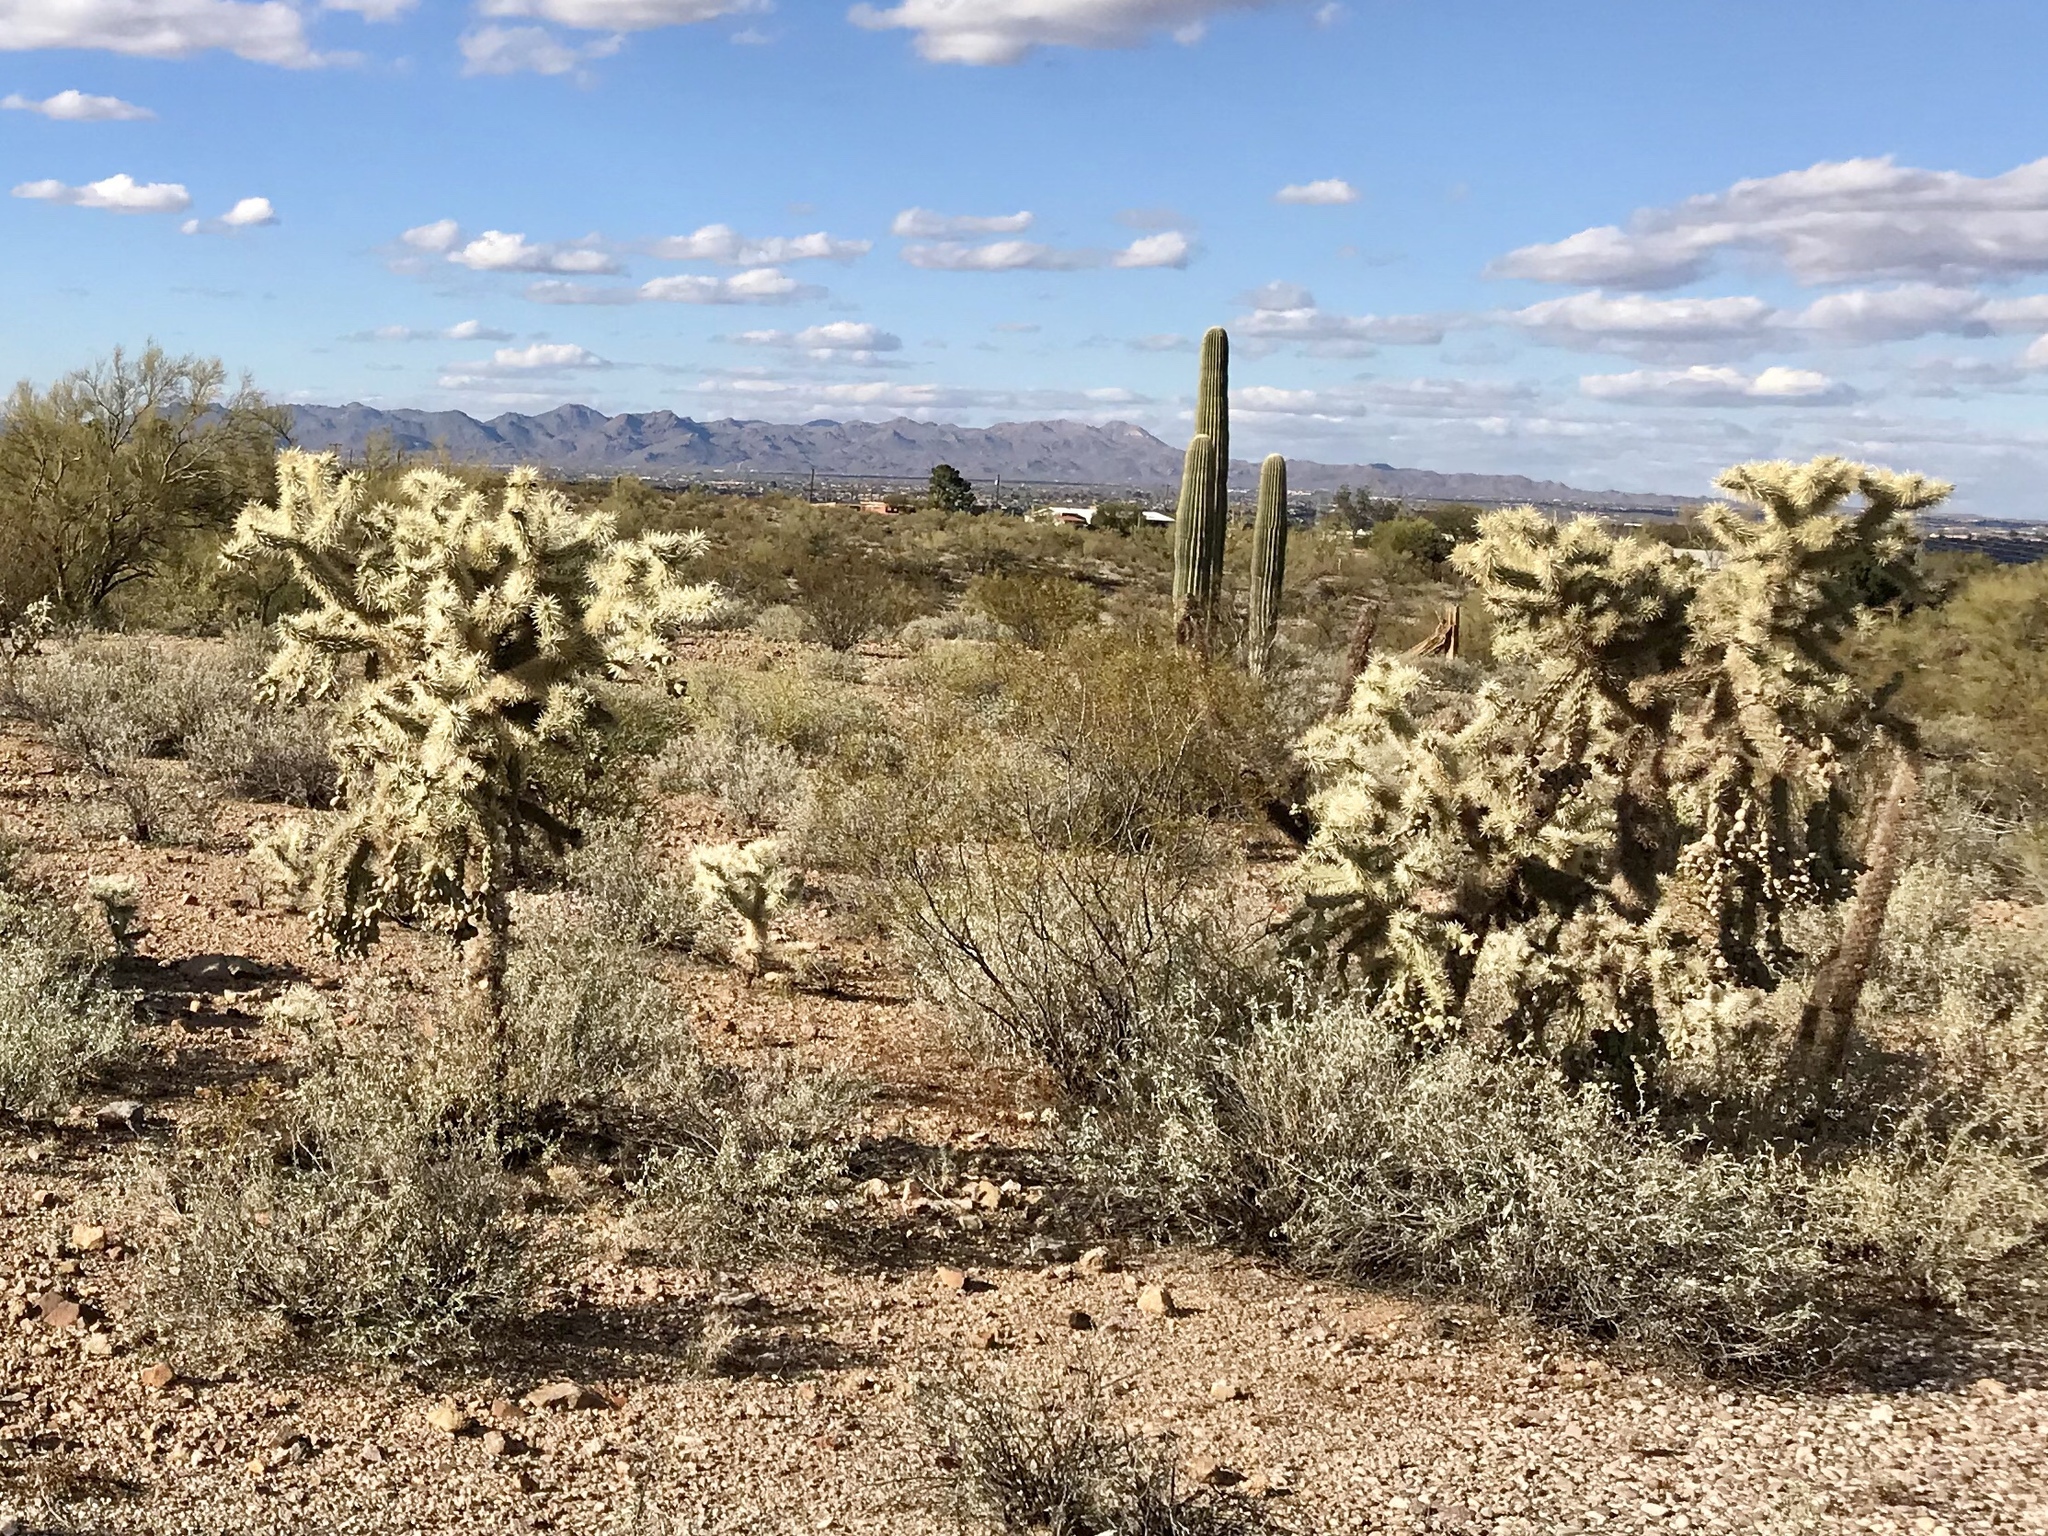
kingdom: Plantae
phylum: Tracheophyta
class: Magnoliopsida
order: Caryophyllales
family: Cactaceae
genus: Cylindropuntia
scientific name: Cylindropuntia fulgida
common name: Jumping cholla
